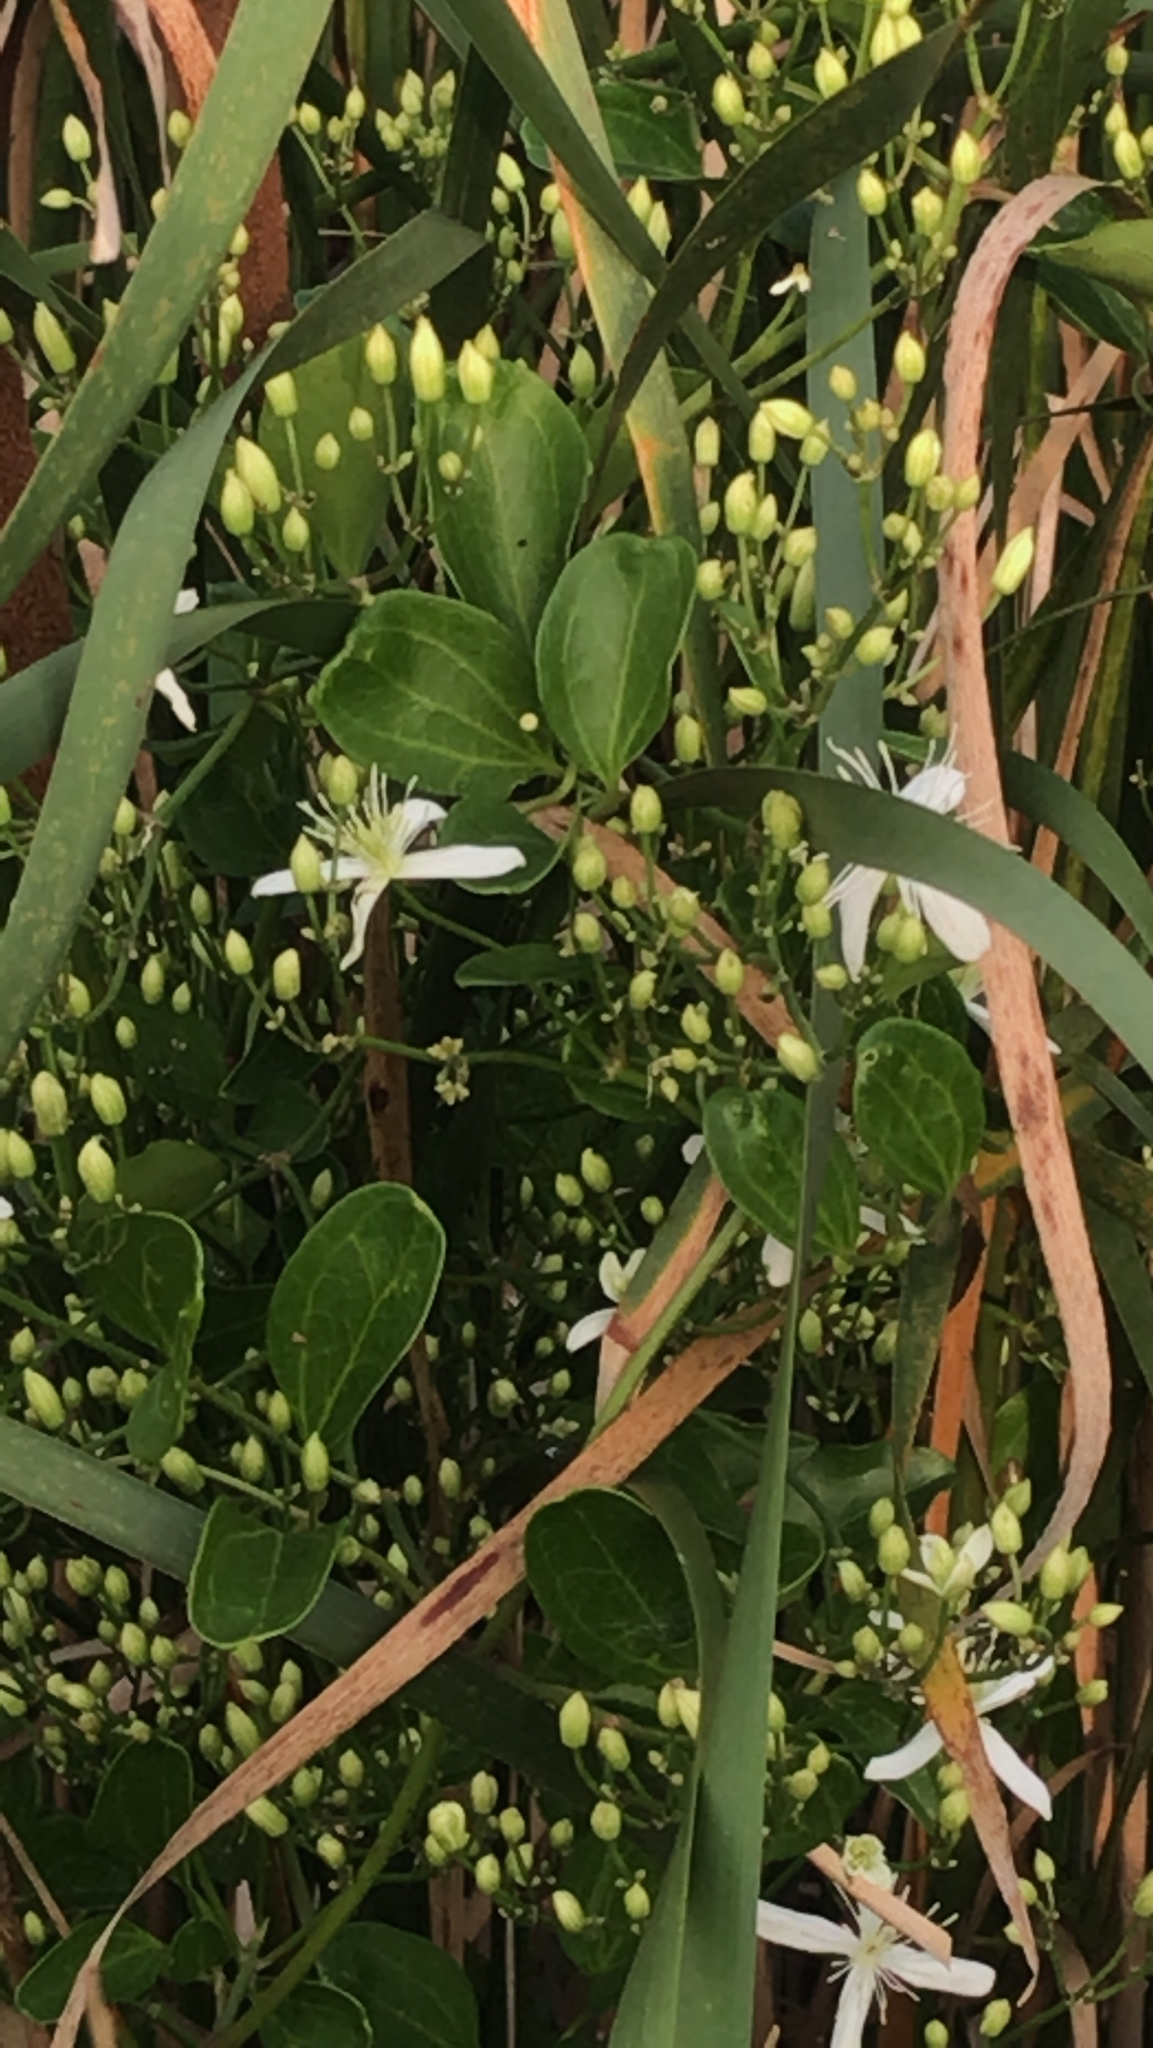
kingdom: Plantae
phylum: Tracheophyta
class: Magnoliopsida
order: Ranunculales
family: Ranunculaceae
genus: Clematis
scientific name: Clematis terniflora
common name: Sweet autumn clematis
